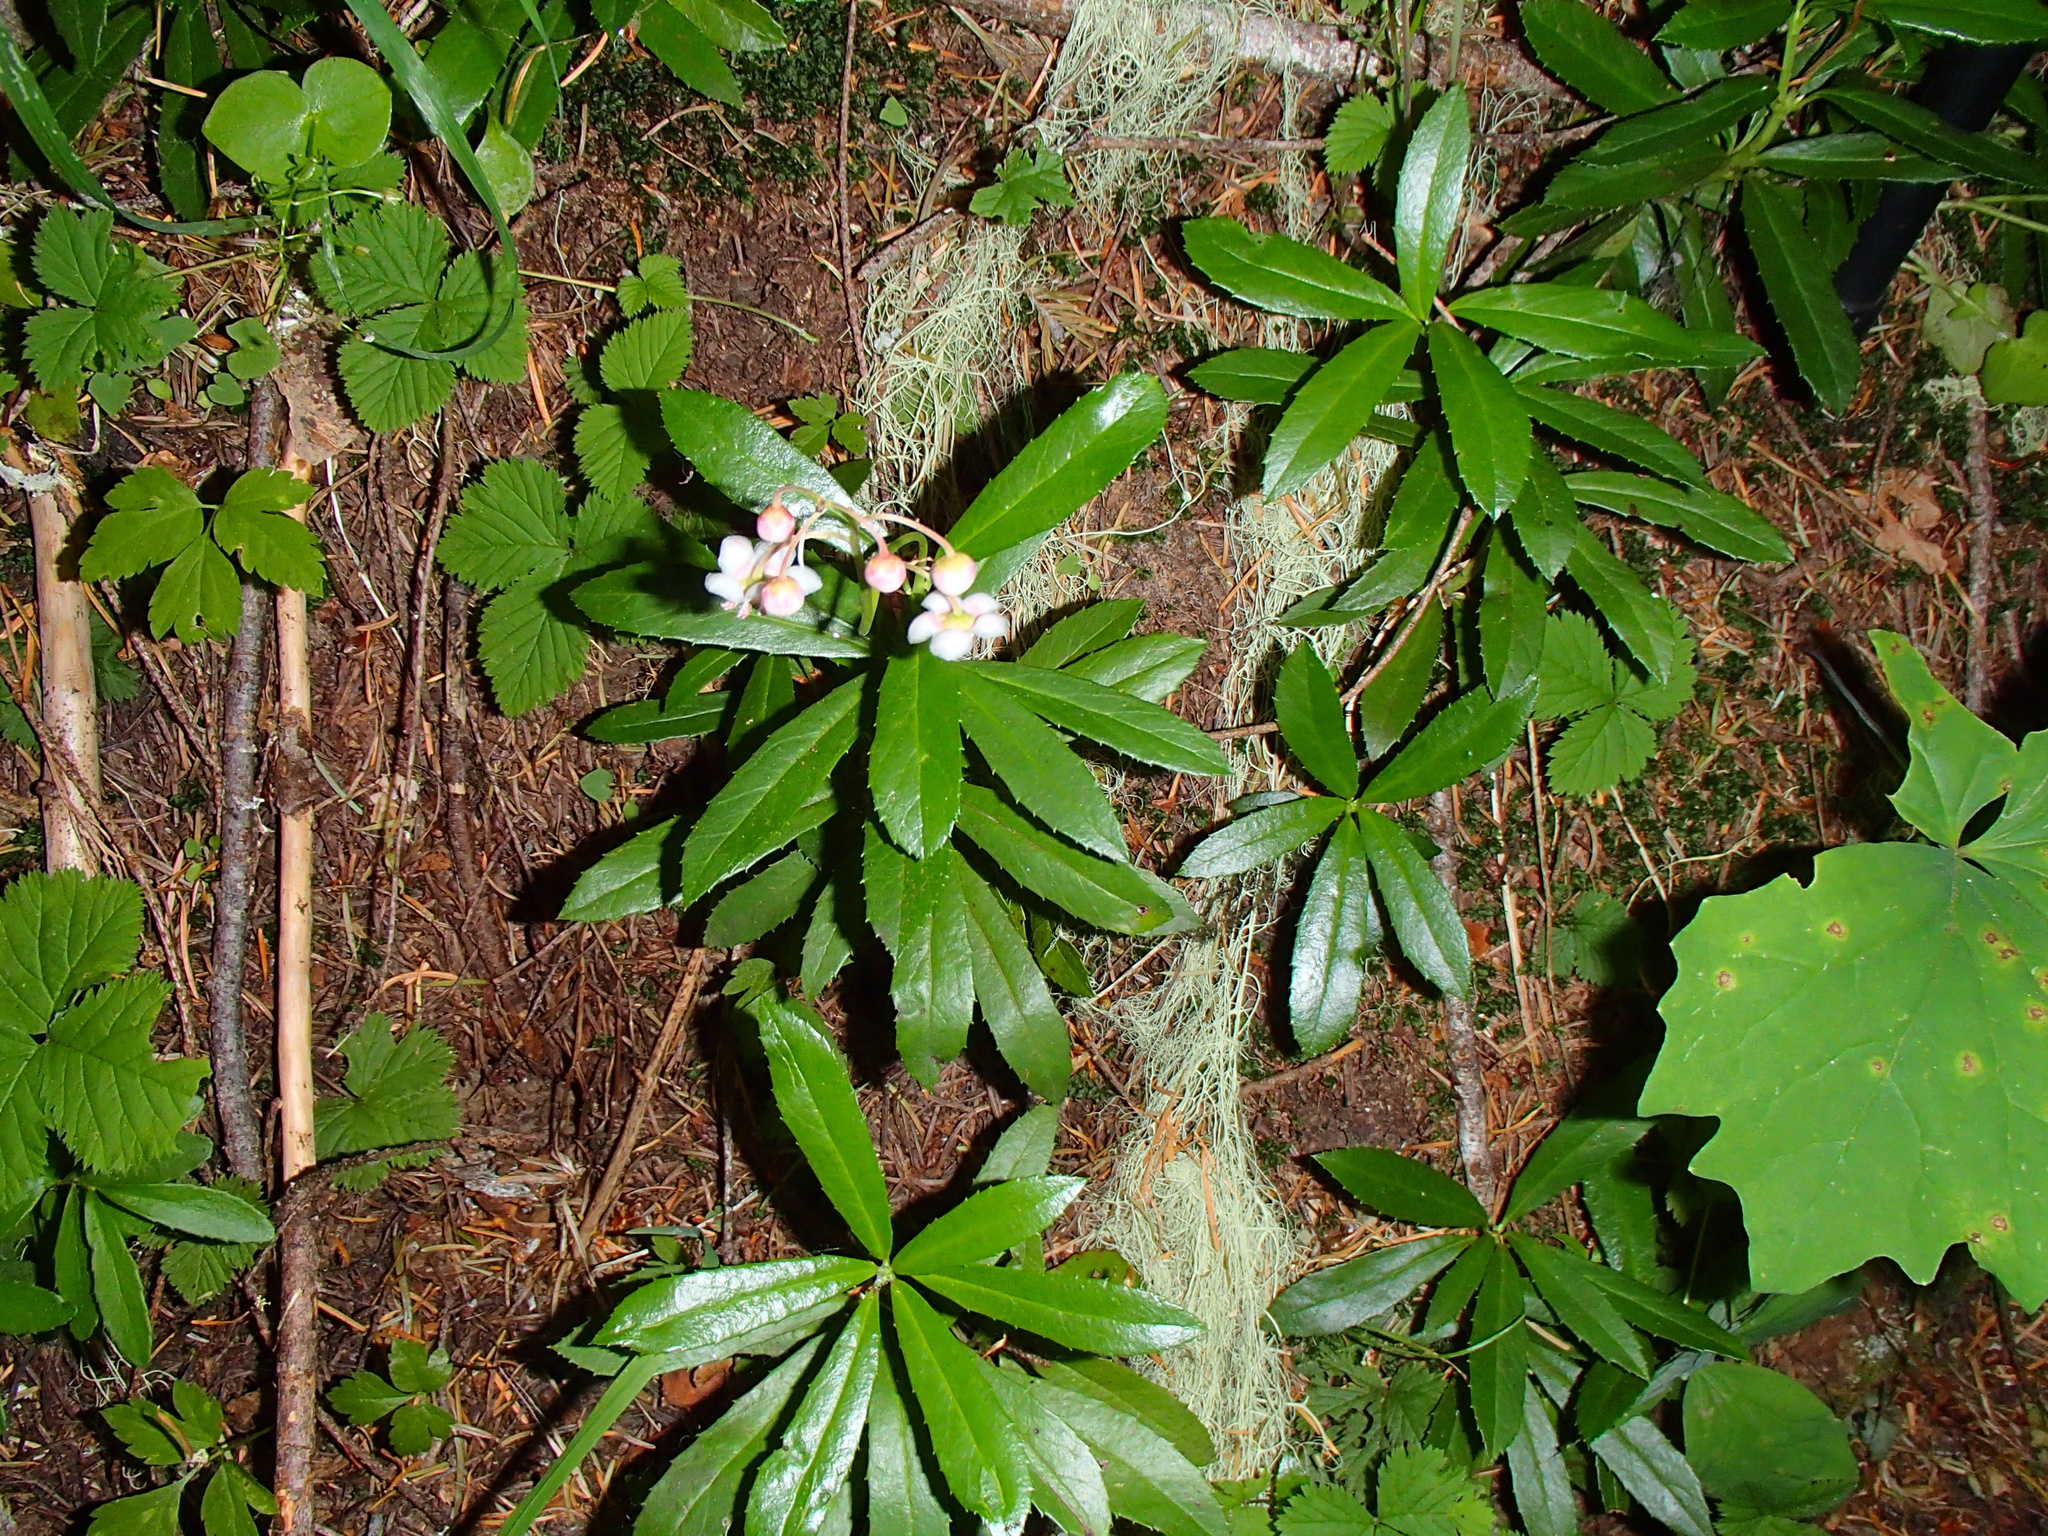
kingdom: Plantae
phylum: Tracheophyta
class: Magnoliopsida
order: Ericales
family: Ericaceae
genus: Chimaphila
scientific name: Chimaphila umbellata
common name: Pipsissewa
